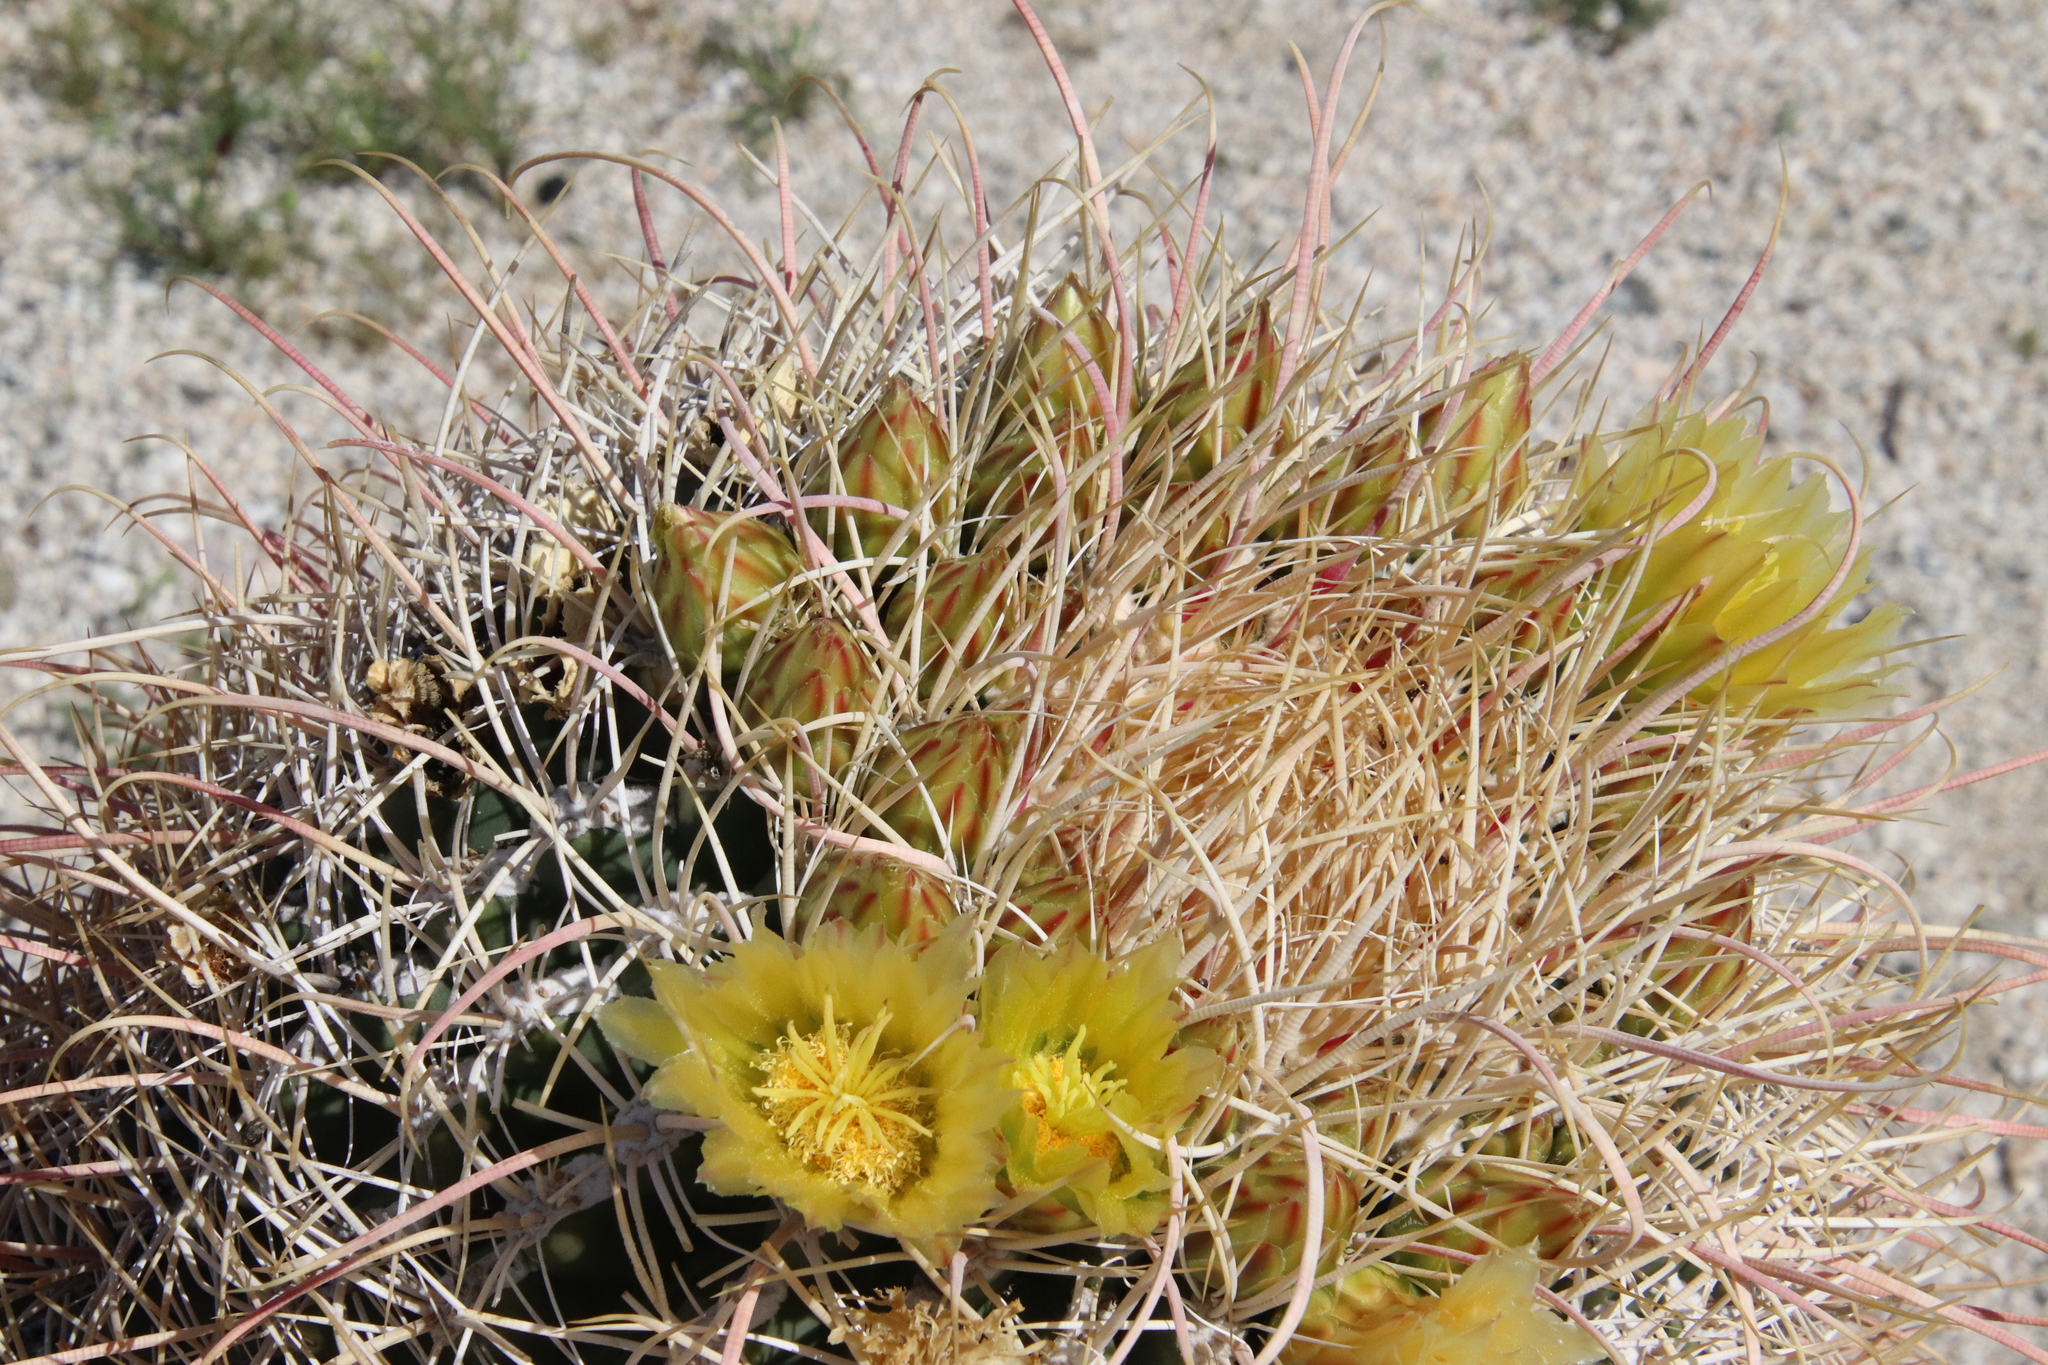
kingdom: Plantae
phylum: Tracheophyta
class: Magnoliopsida
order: Caryophyllales
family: Cactaceae
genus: Ferocactus
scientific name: Ferocactus cylindraceus
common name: California barrel cactus
